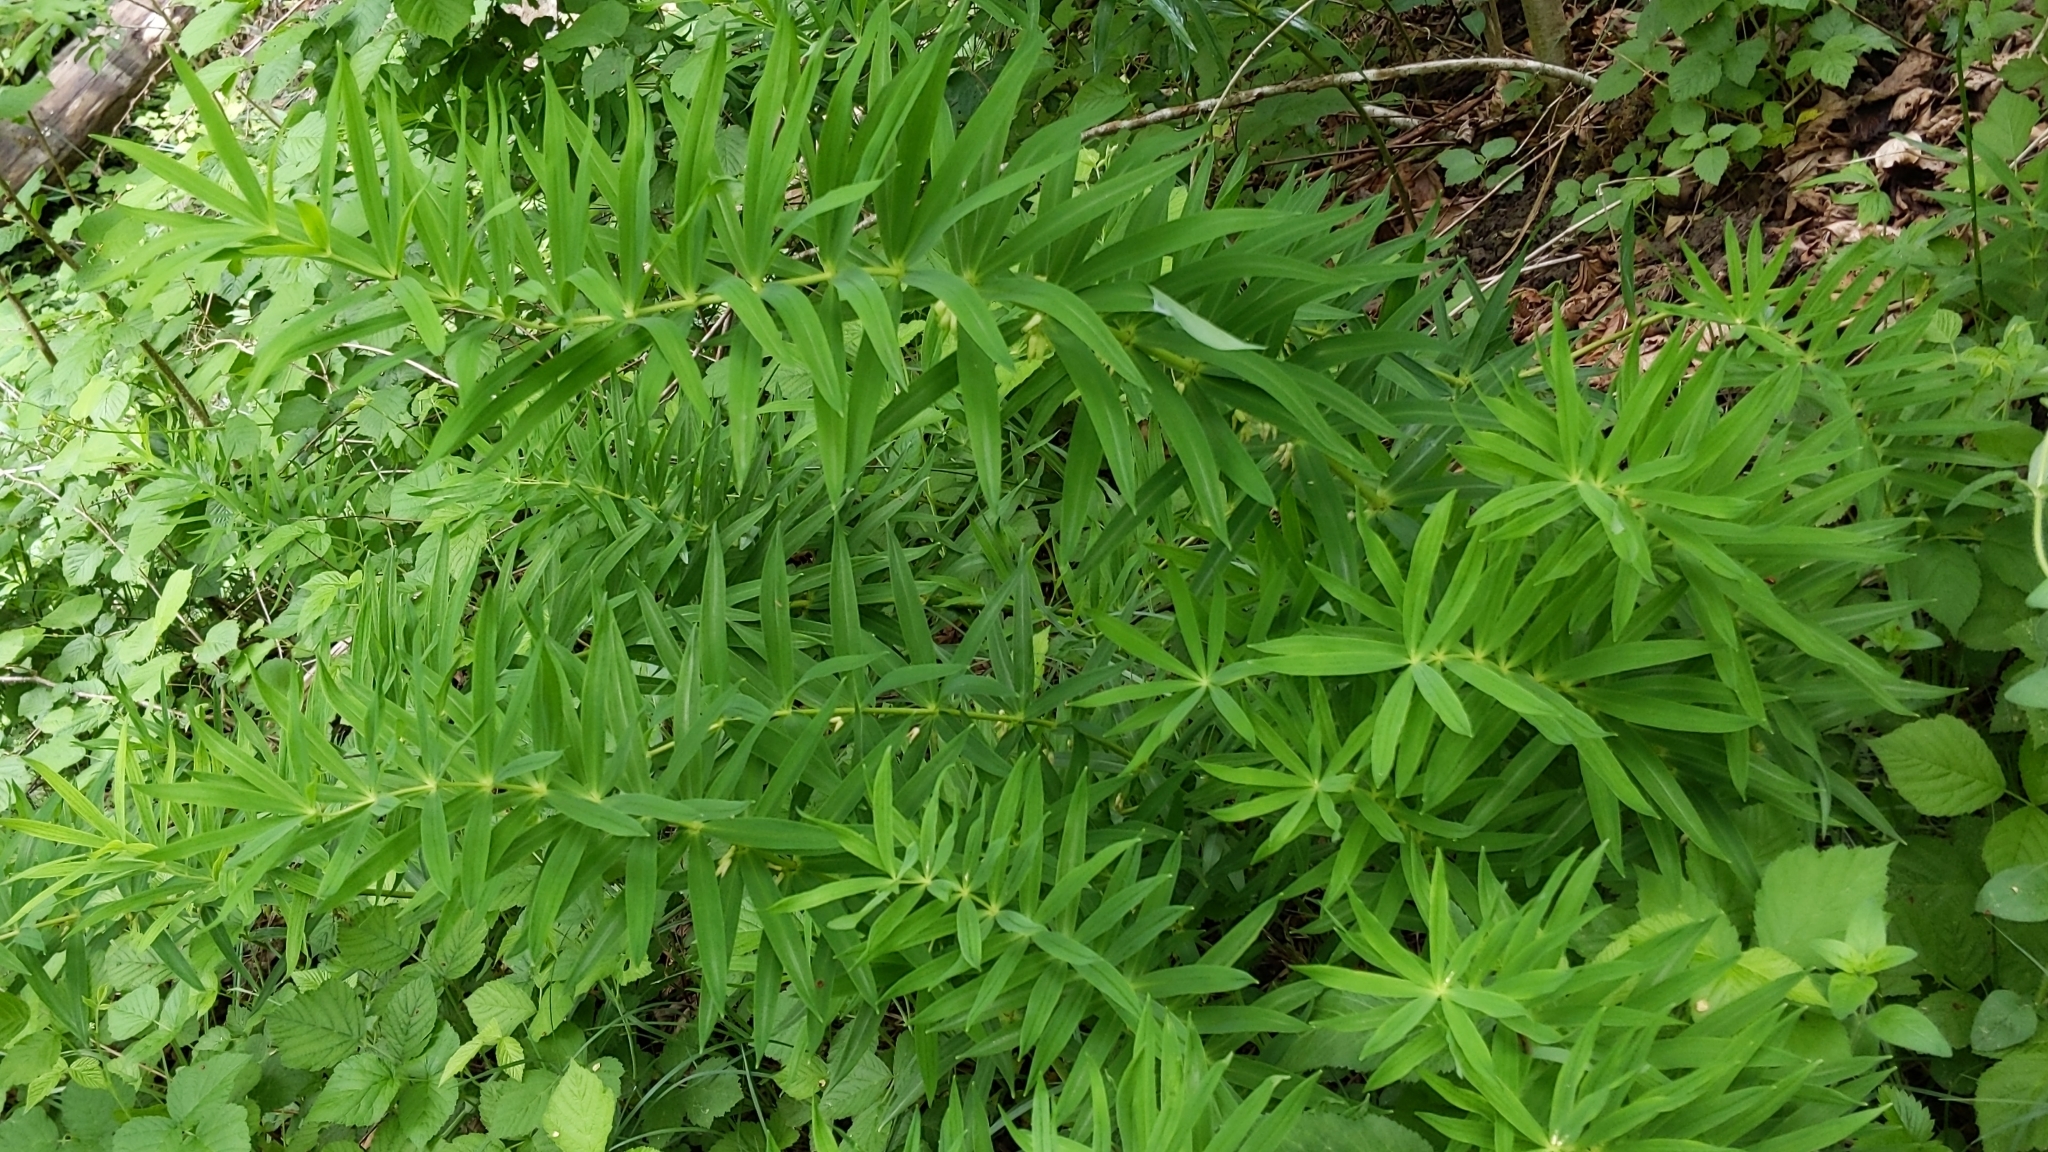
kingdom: Plantae
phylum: Tracheophyta
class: Liliopsida
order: Asparagales
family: Asparagaceae
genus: Polygonatum
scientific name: Polygonatum verticillatum
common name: Whorled solomon's-seal
